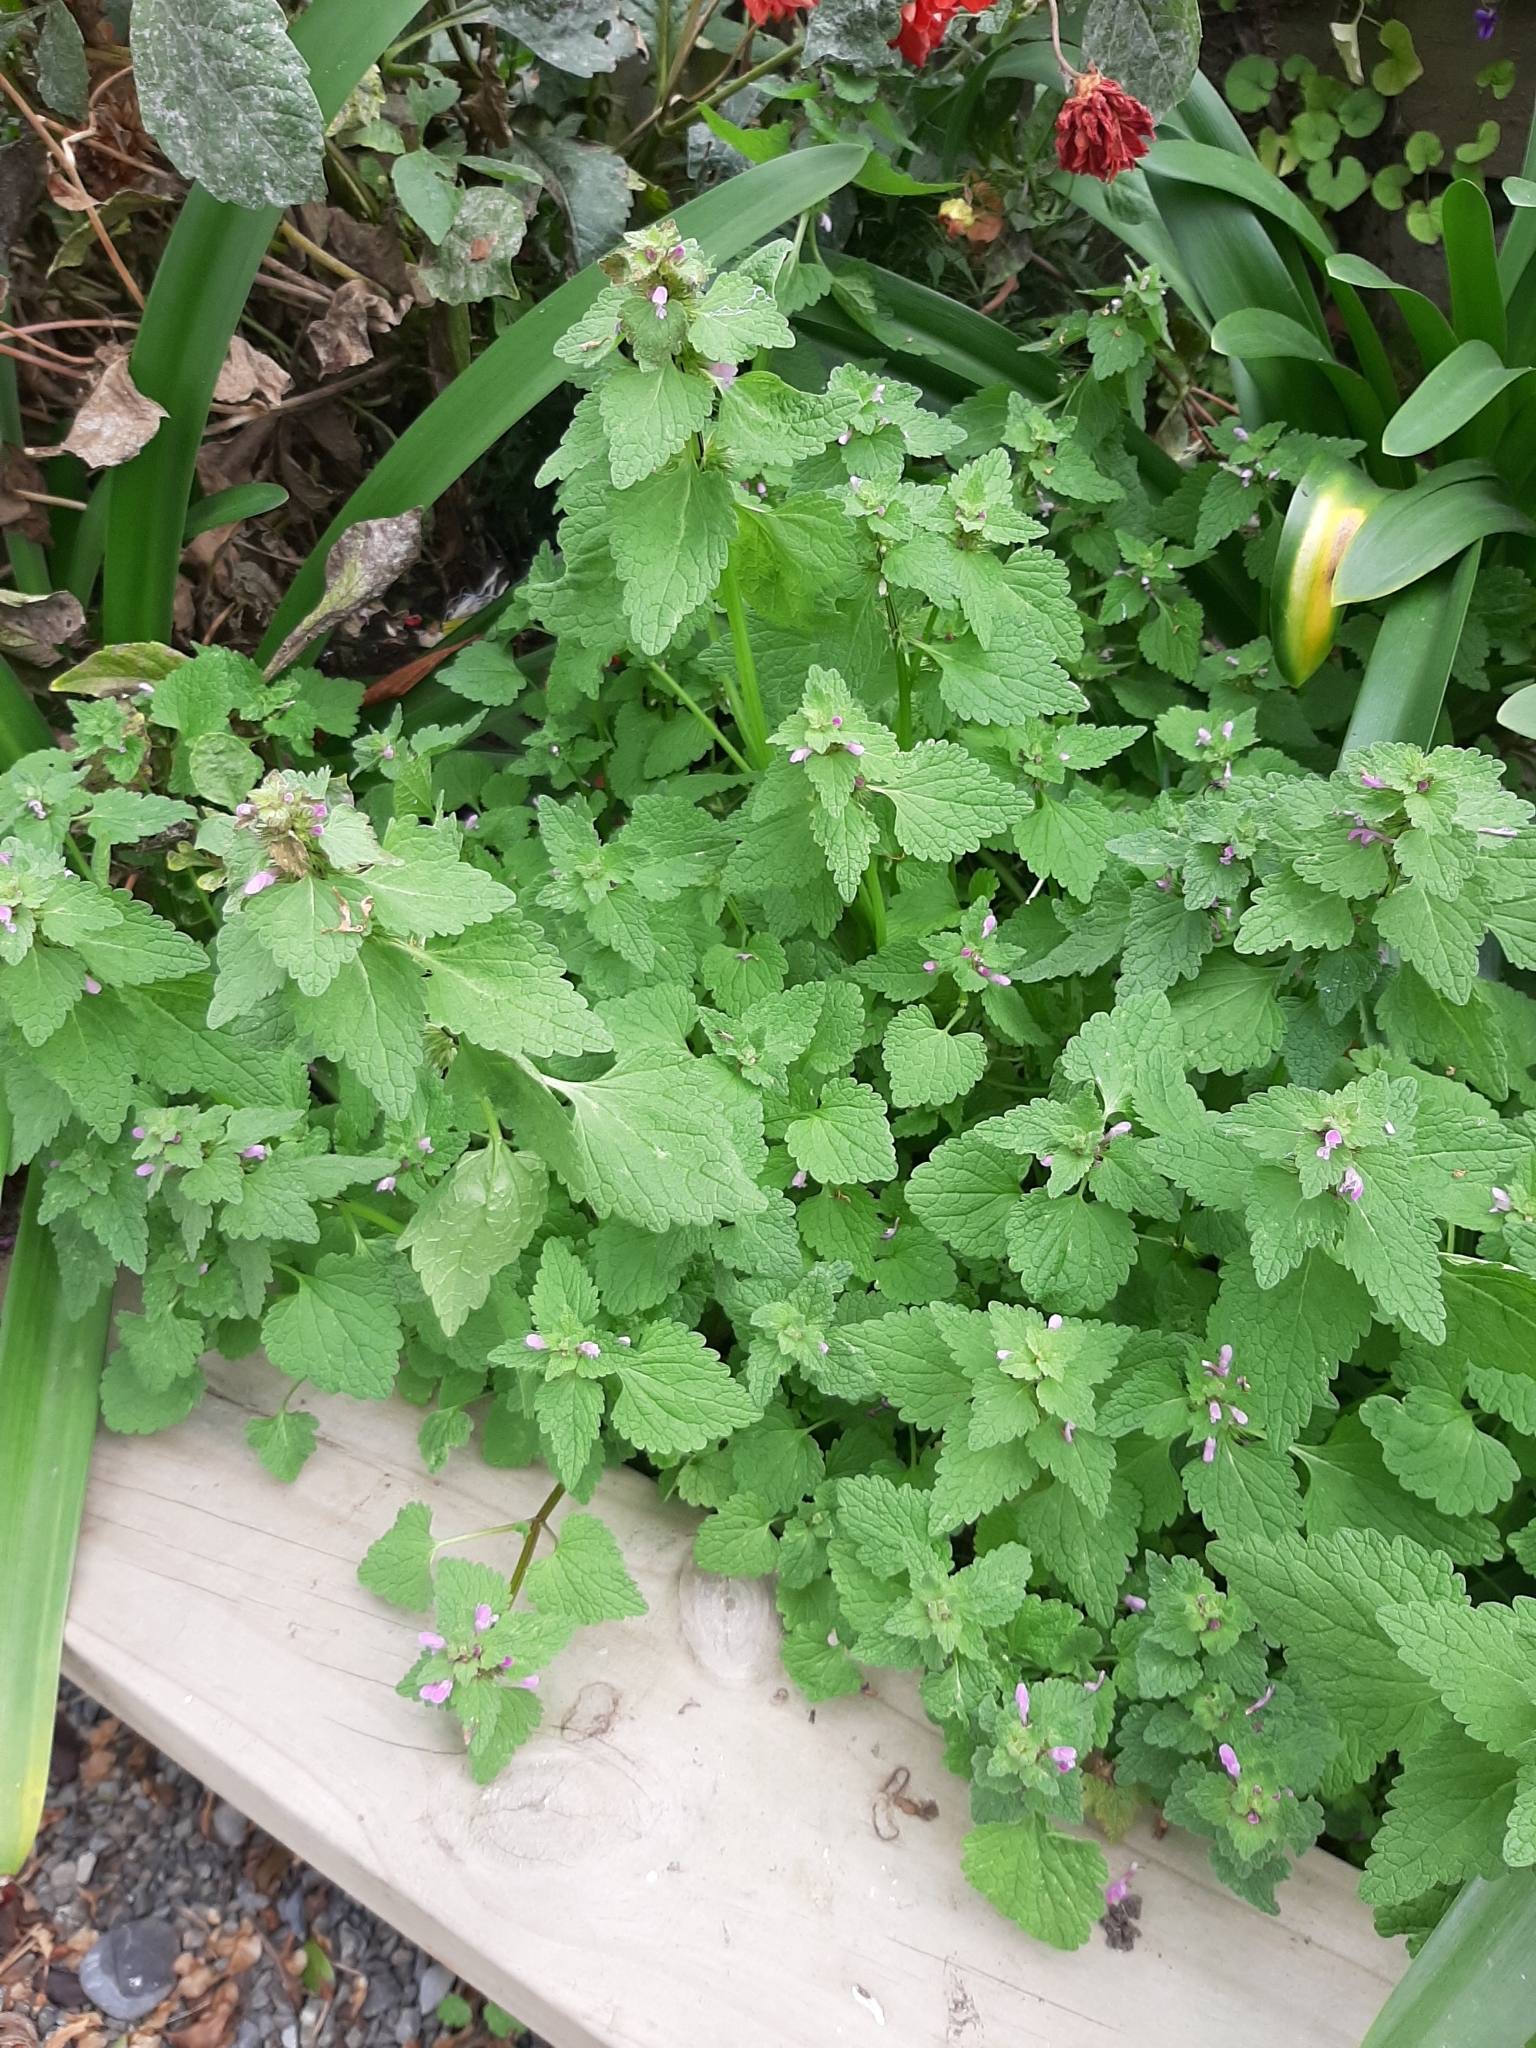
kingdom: Plantae
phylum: Tracheophyta
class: Magnoliopsida
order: Lamiales
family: Lamiaceae
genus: Lamium
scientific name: Lamium purpureum
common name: Red dead-nettle
